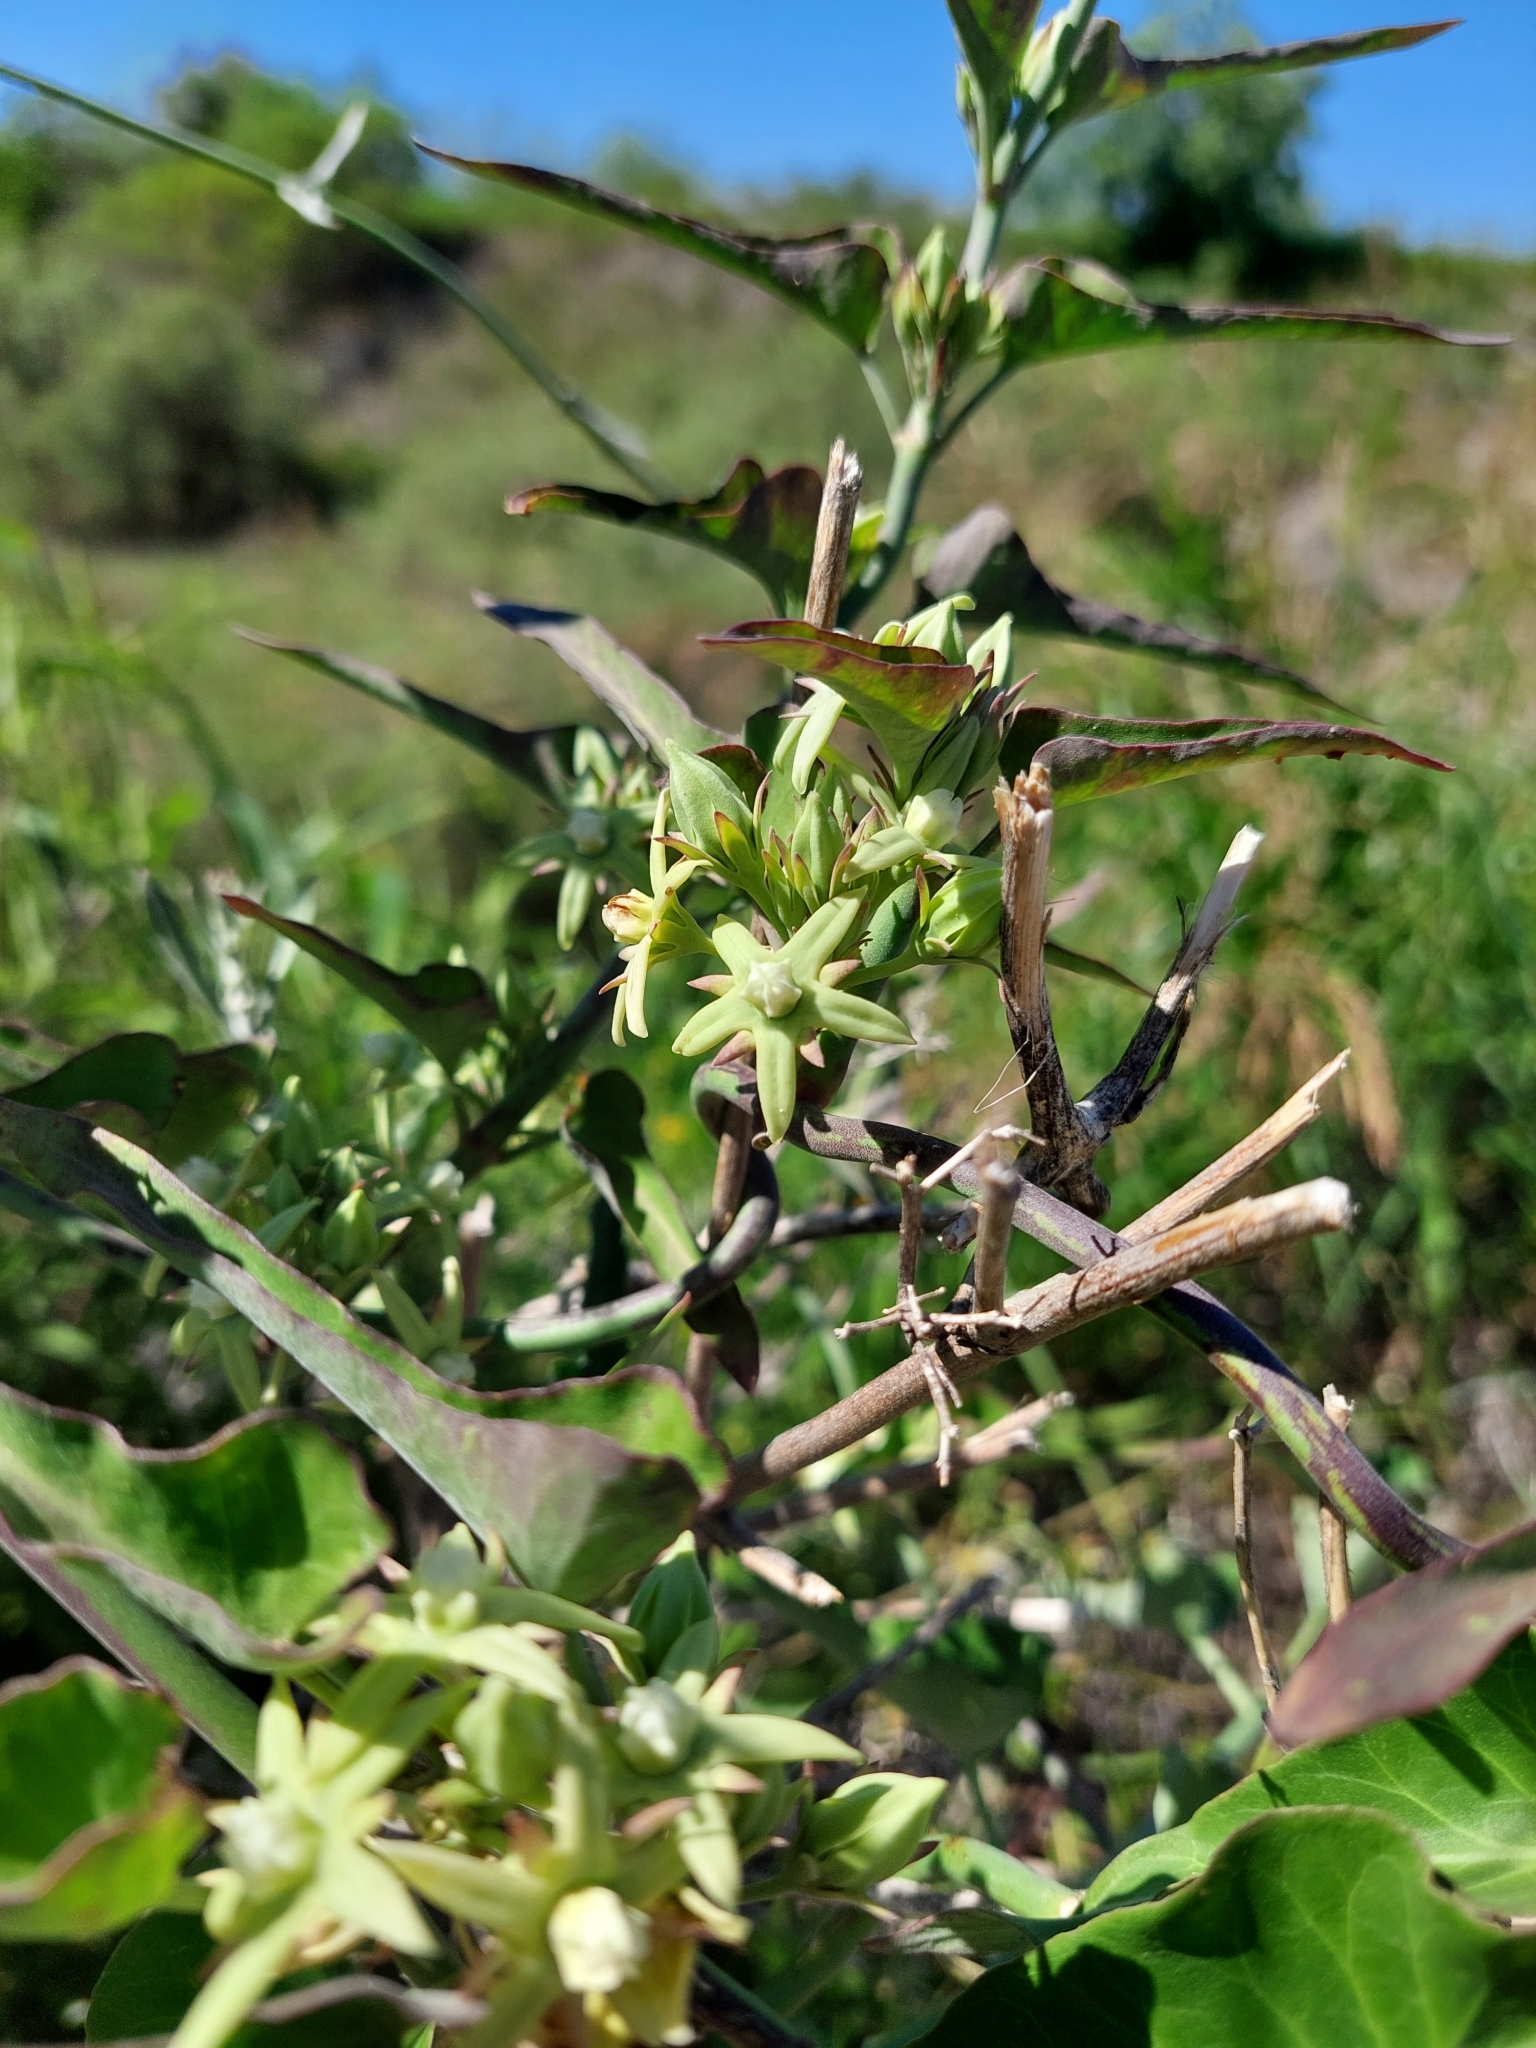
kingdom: Plantae
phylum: Tracheophyta
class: Magnoliopsida
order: Gentianales
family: Apocynaceae
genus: Araujia
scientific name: Araujia odorata
